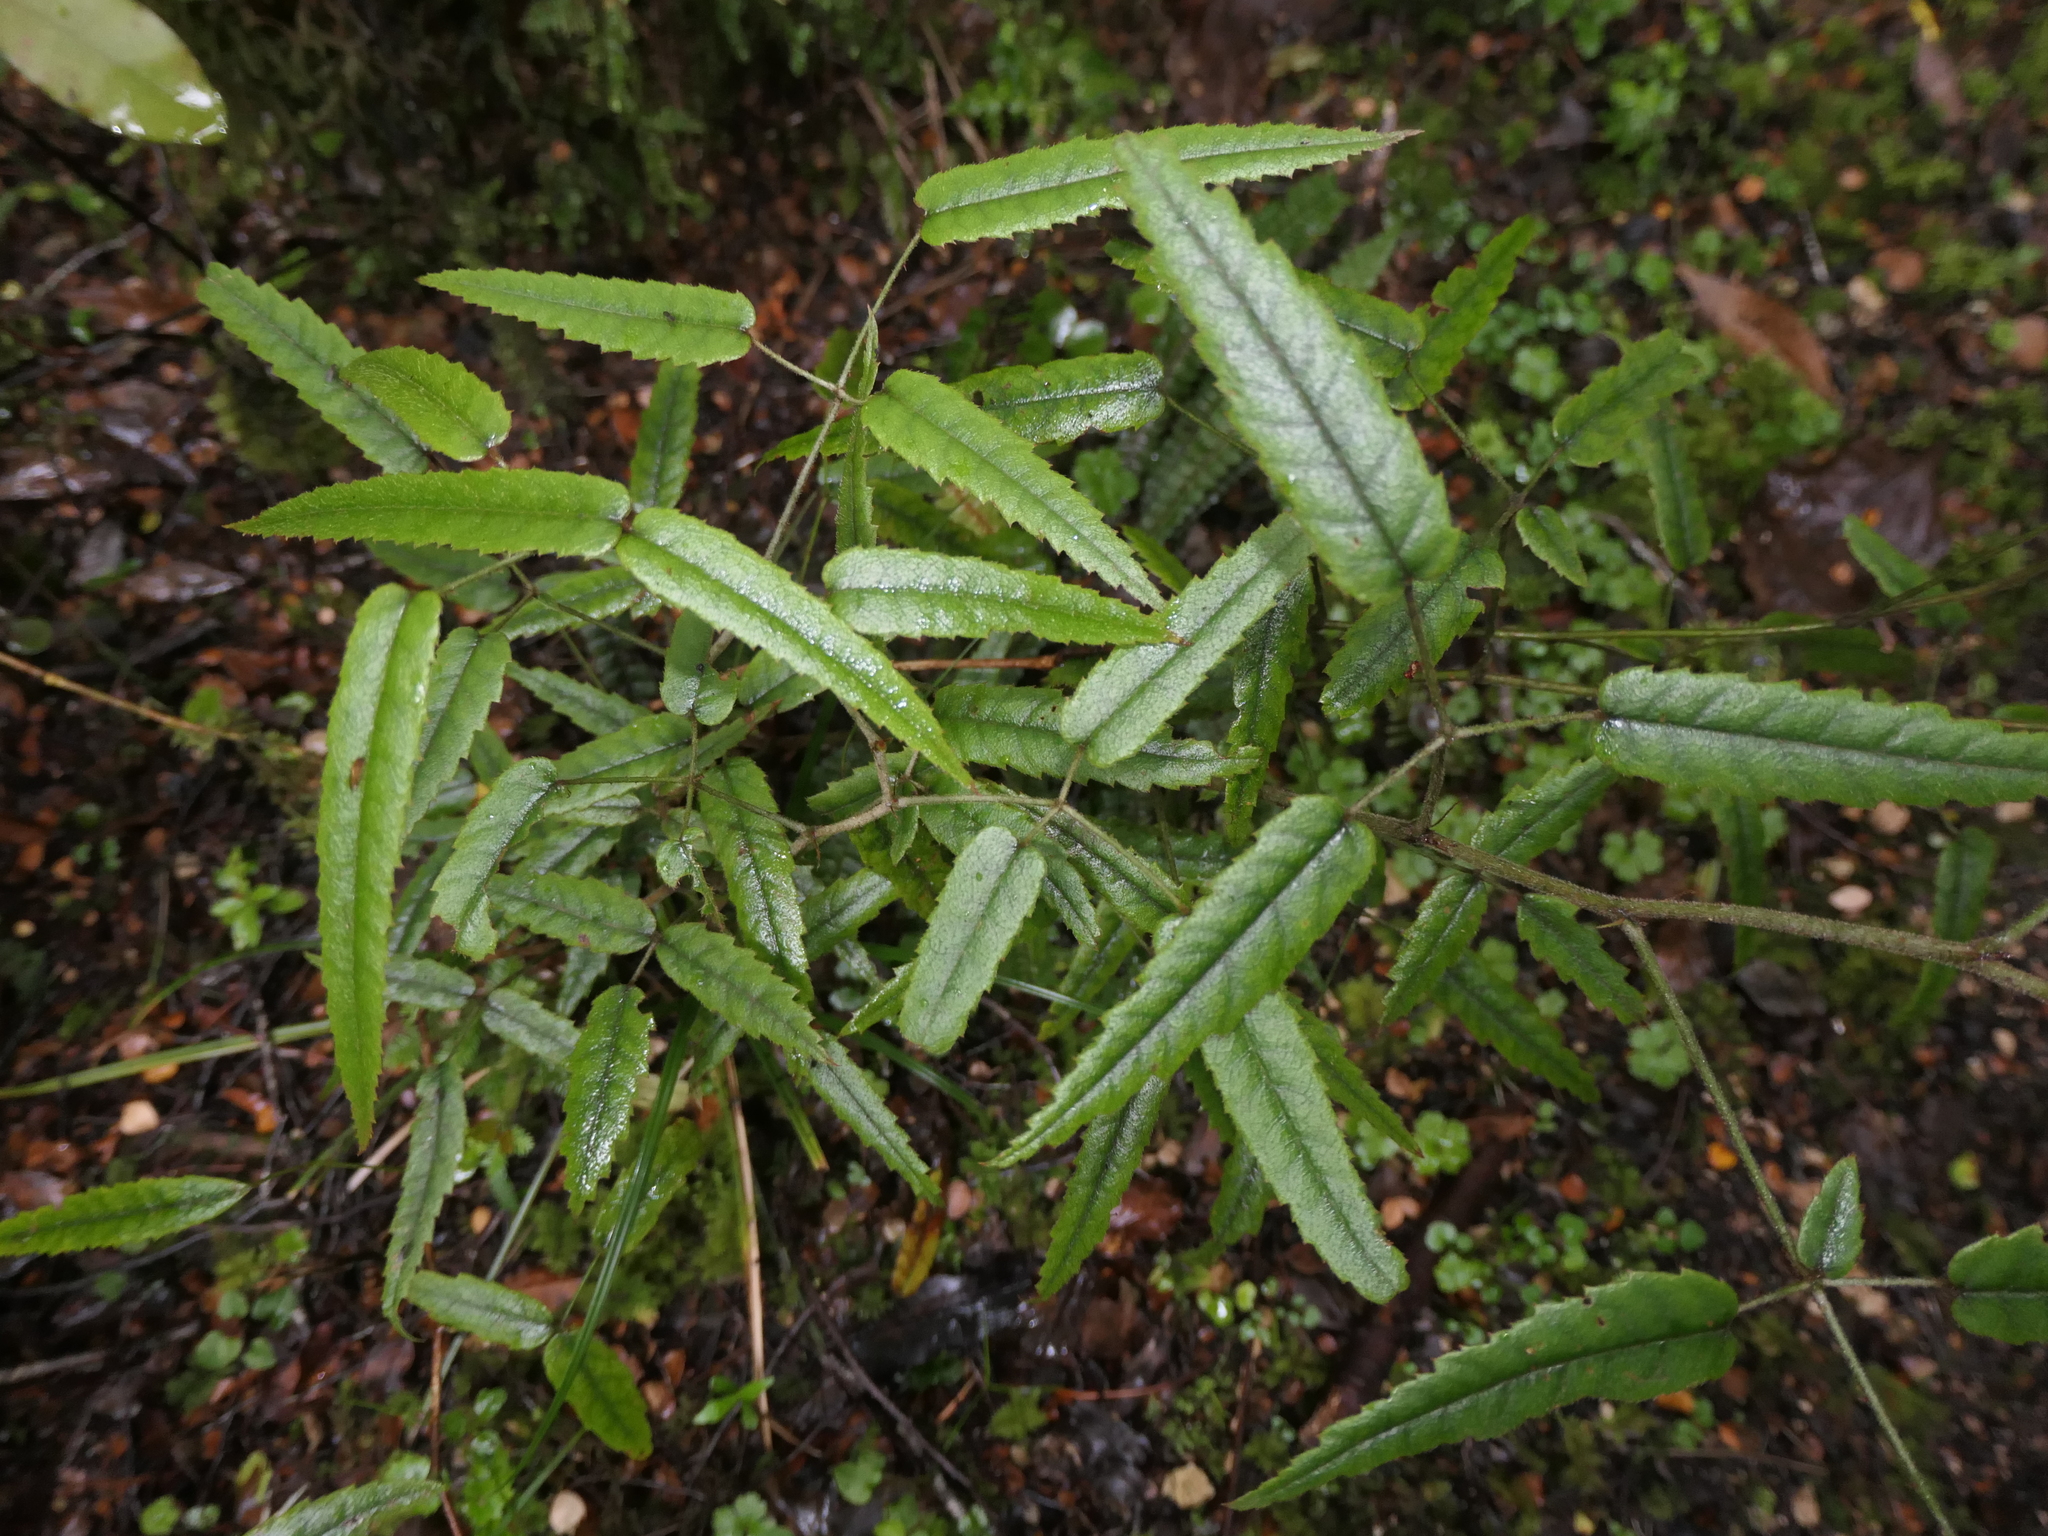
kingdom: Plantae
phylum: Tracheophyta
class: Magnoliopsida
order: Rosales
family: Rosaceae
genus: Rubus
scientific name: Rubus cissoides
